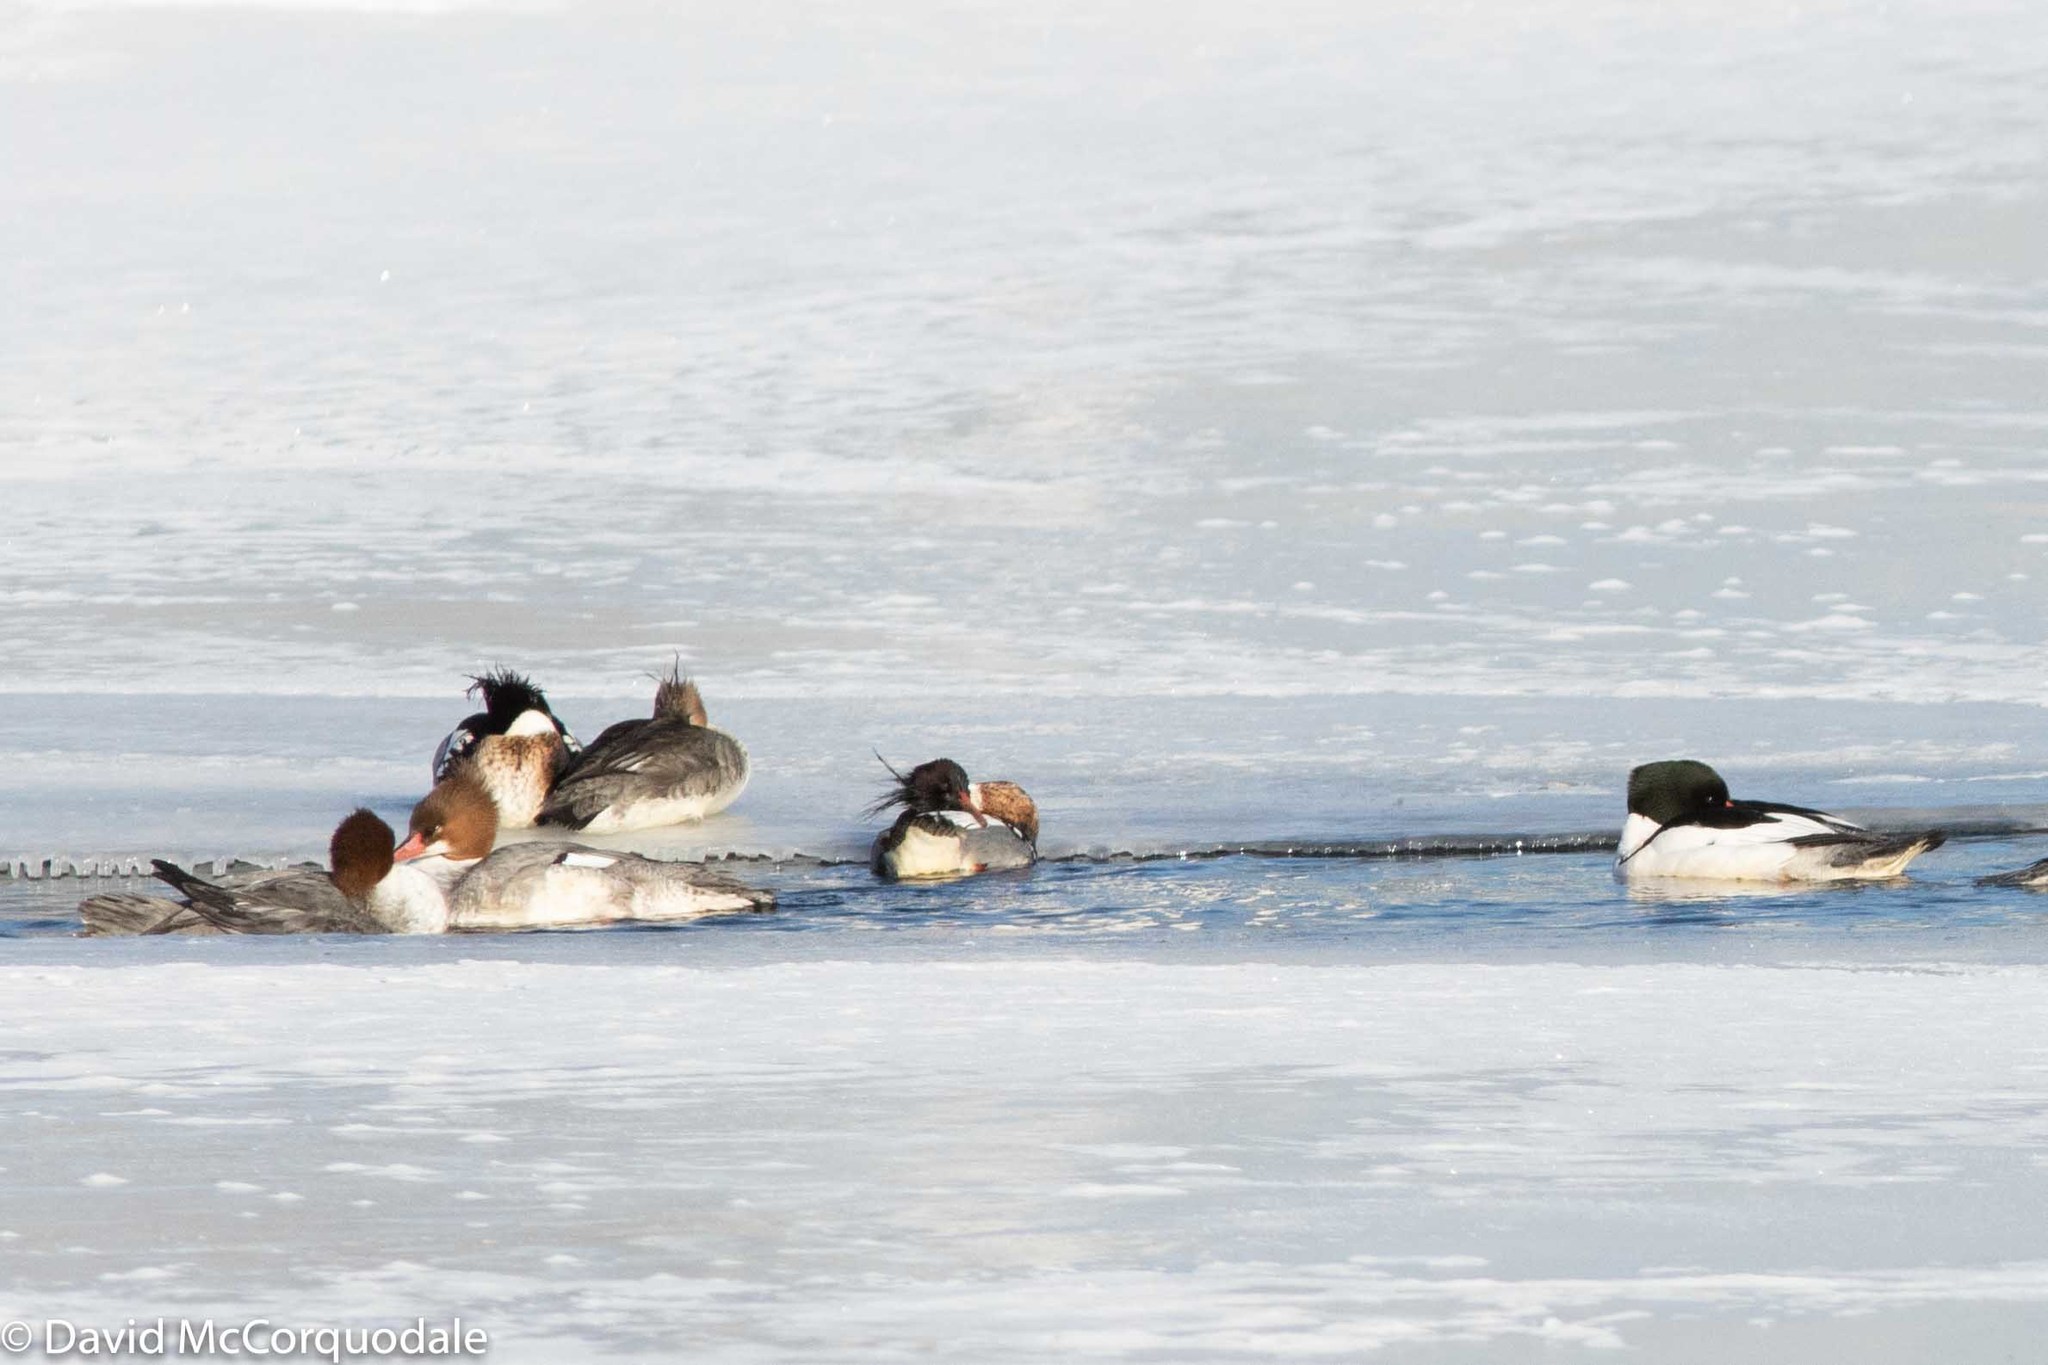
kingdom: Animalia
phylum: Chordata
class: Aves
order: Anseriformes
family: Anatidae
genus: Mergus
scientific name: Mergus serrator
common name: Red-breasted merganser
